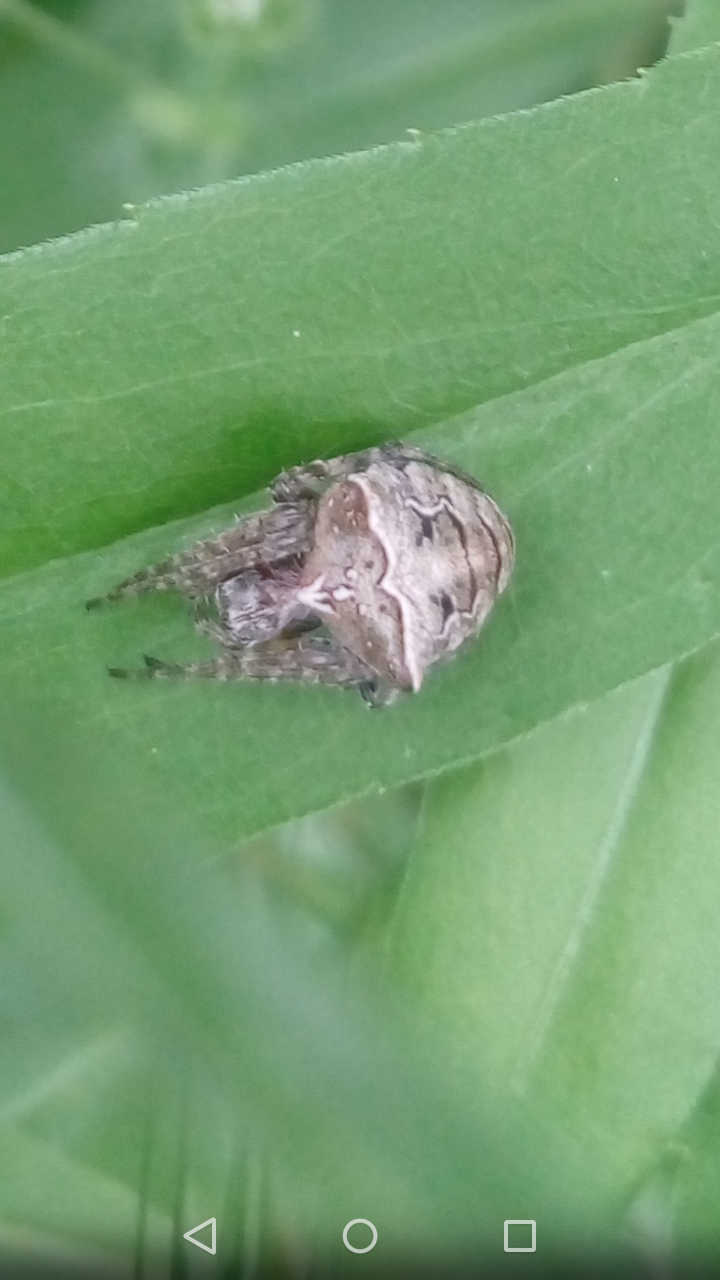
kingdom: Animalia
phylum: Arthropoda
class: Arachnida
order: Araneae
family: Araneidae
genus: Gibbaranea
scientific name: Gibbaranea bituberculata
